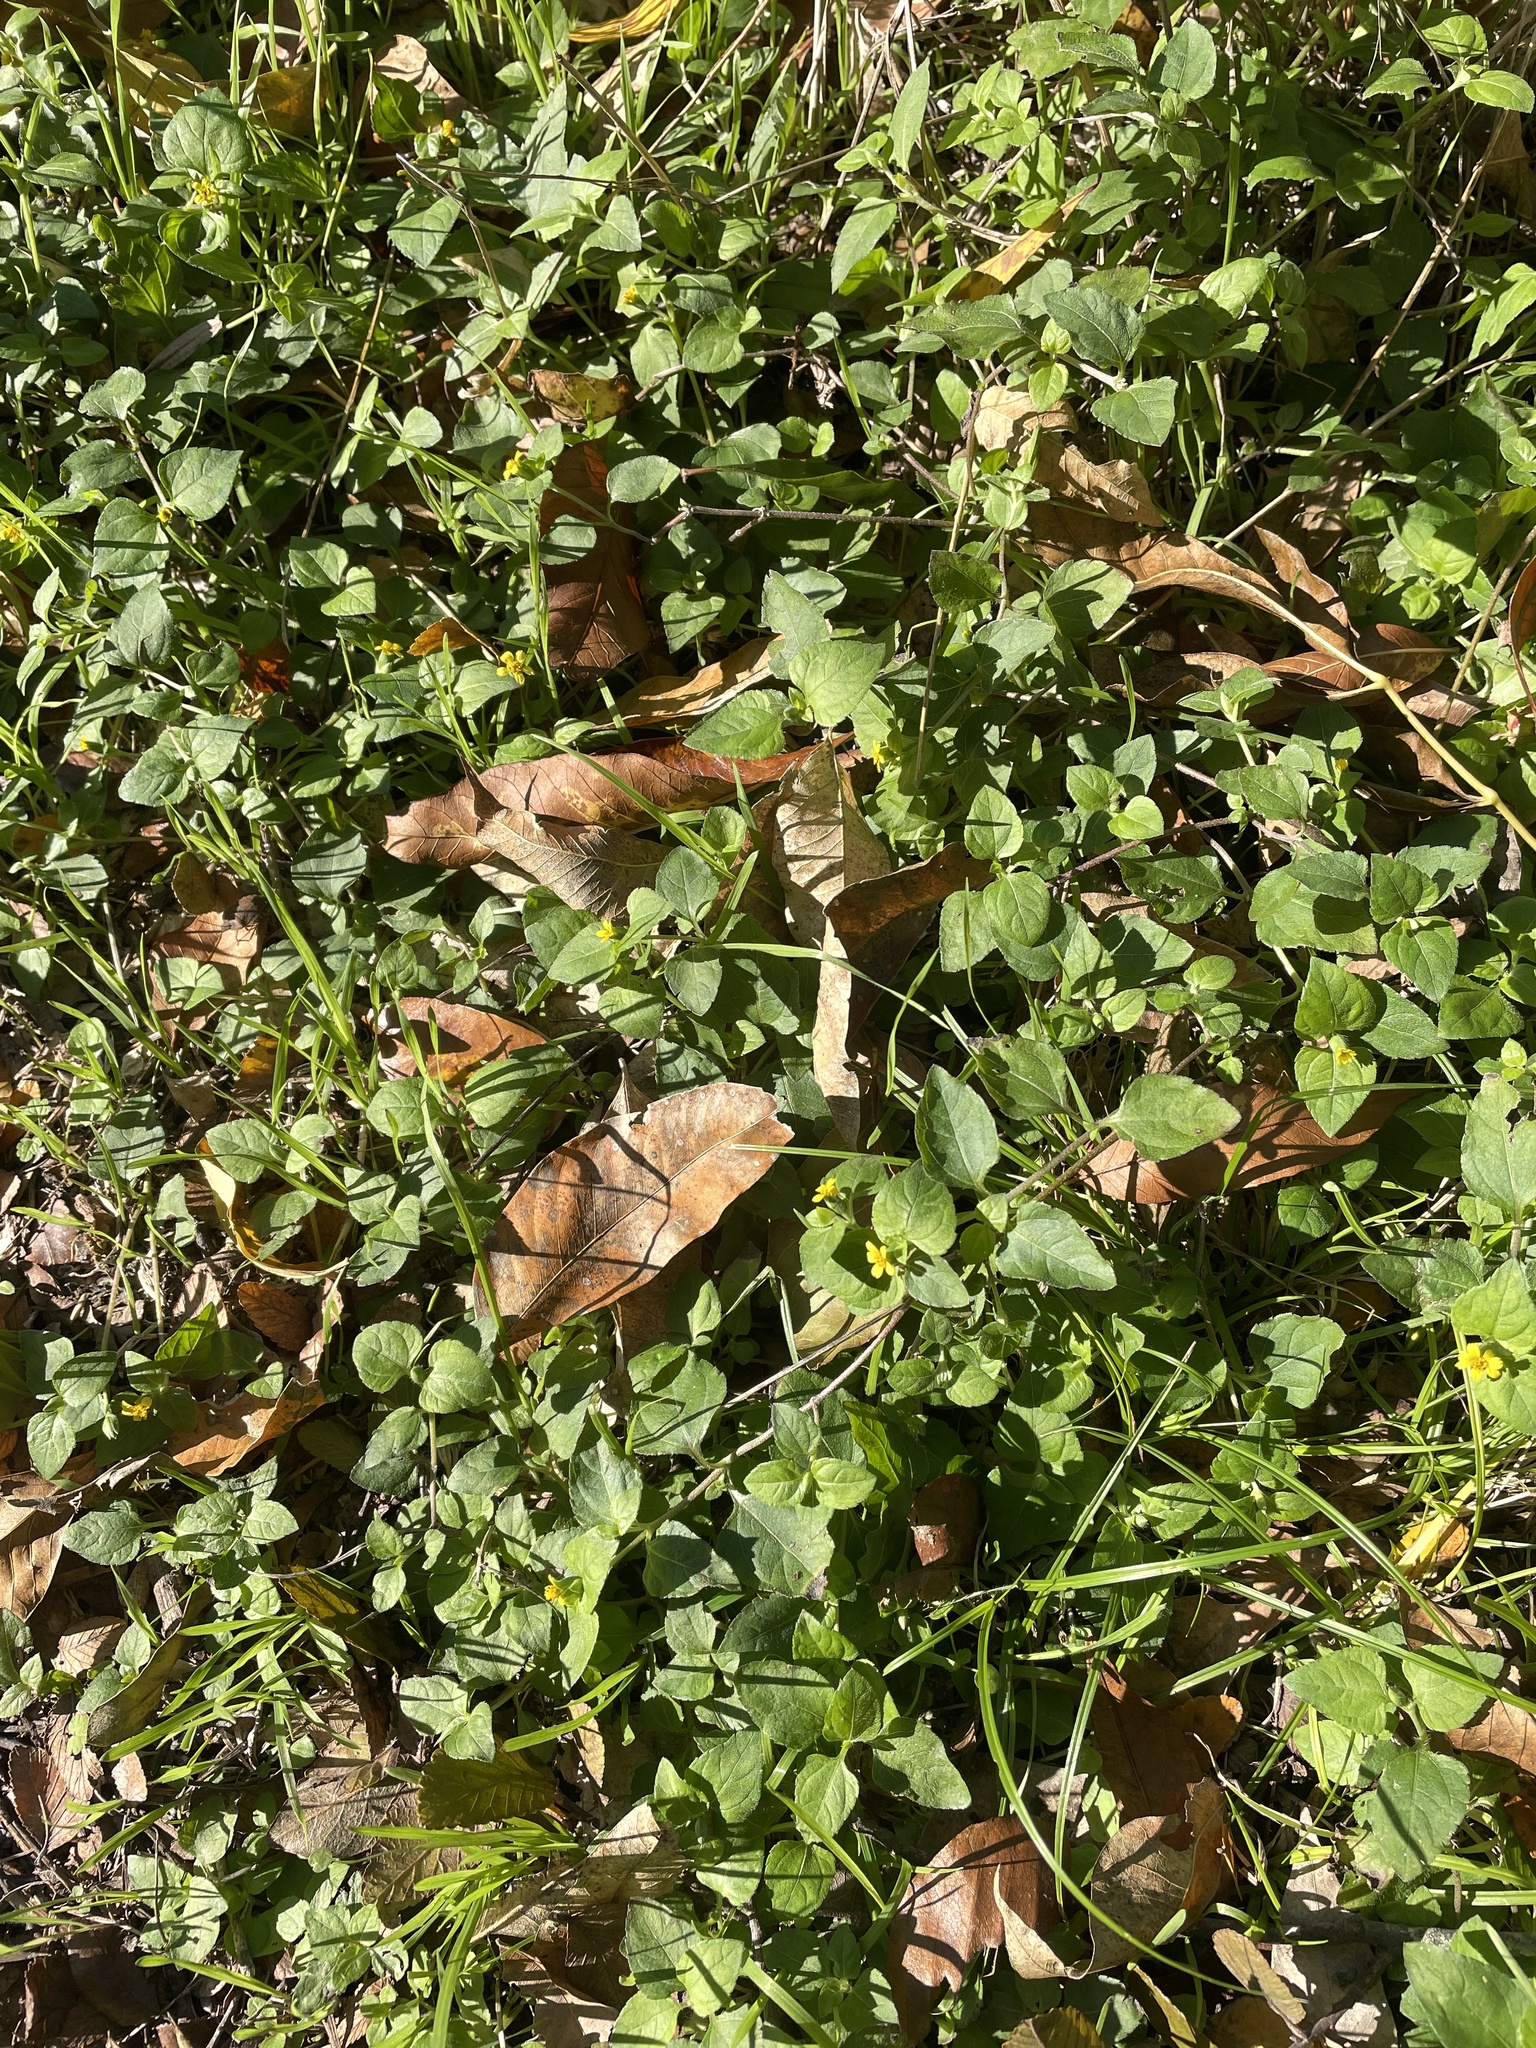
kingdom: Plantae
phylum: Tracheophyta
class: Magnoliopsida
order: Asterales
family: Asteraceae
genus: Calyptocarpus
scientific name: Calyptocarpus vialis
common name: Straggler daisy
